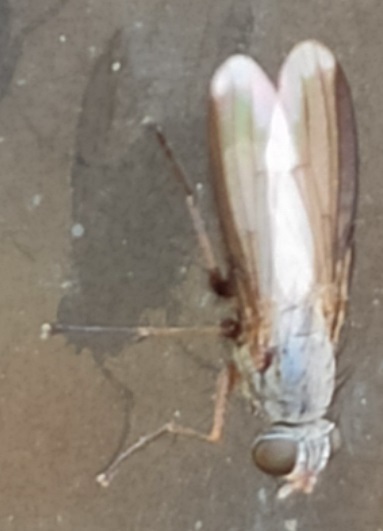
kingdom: Animalia
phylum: Arthropoda
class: Insecta
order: Diptera
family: Muscidae
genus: Orchisia
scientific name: Orchisia costata
